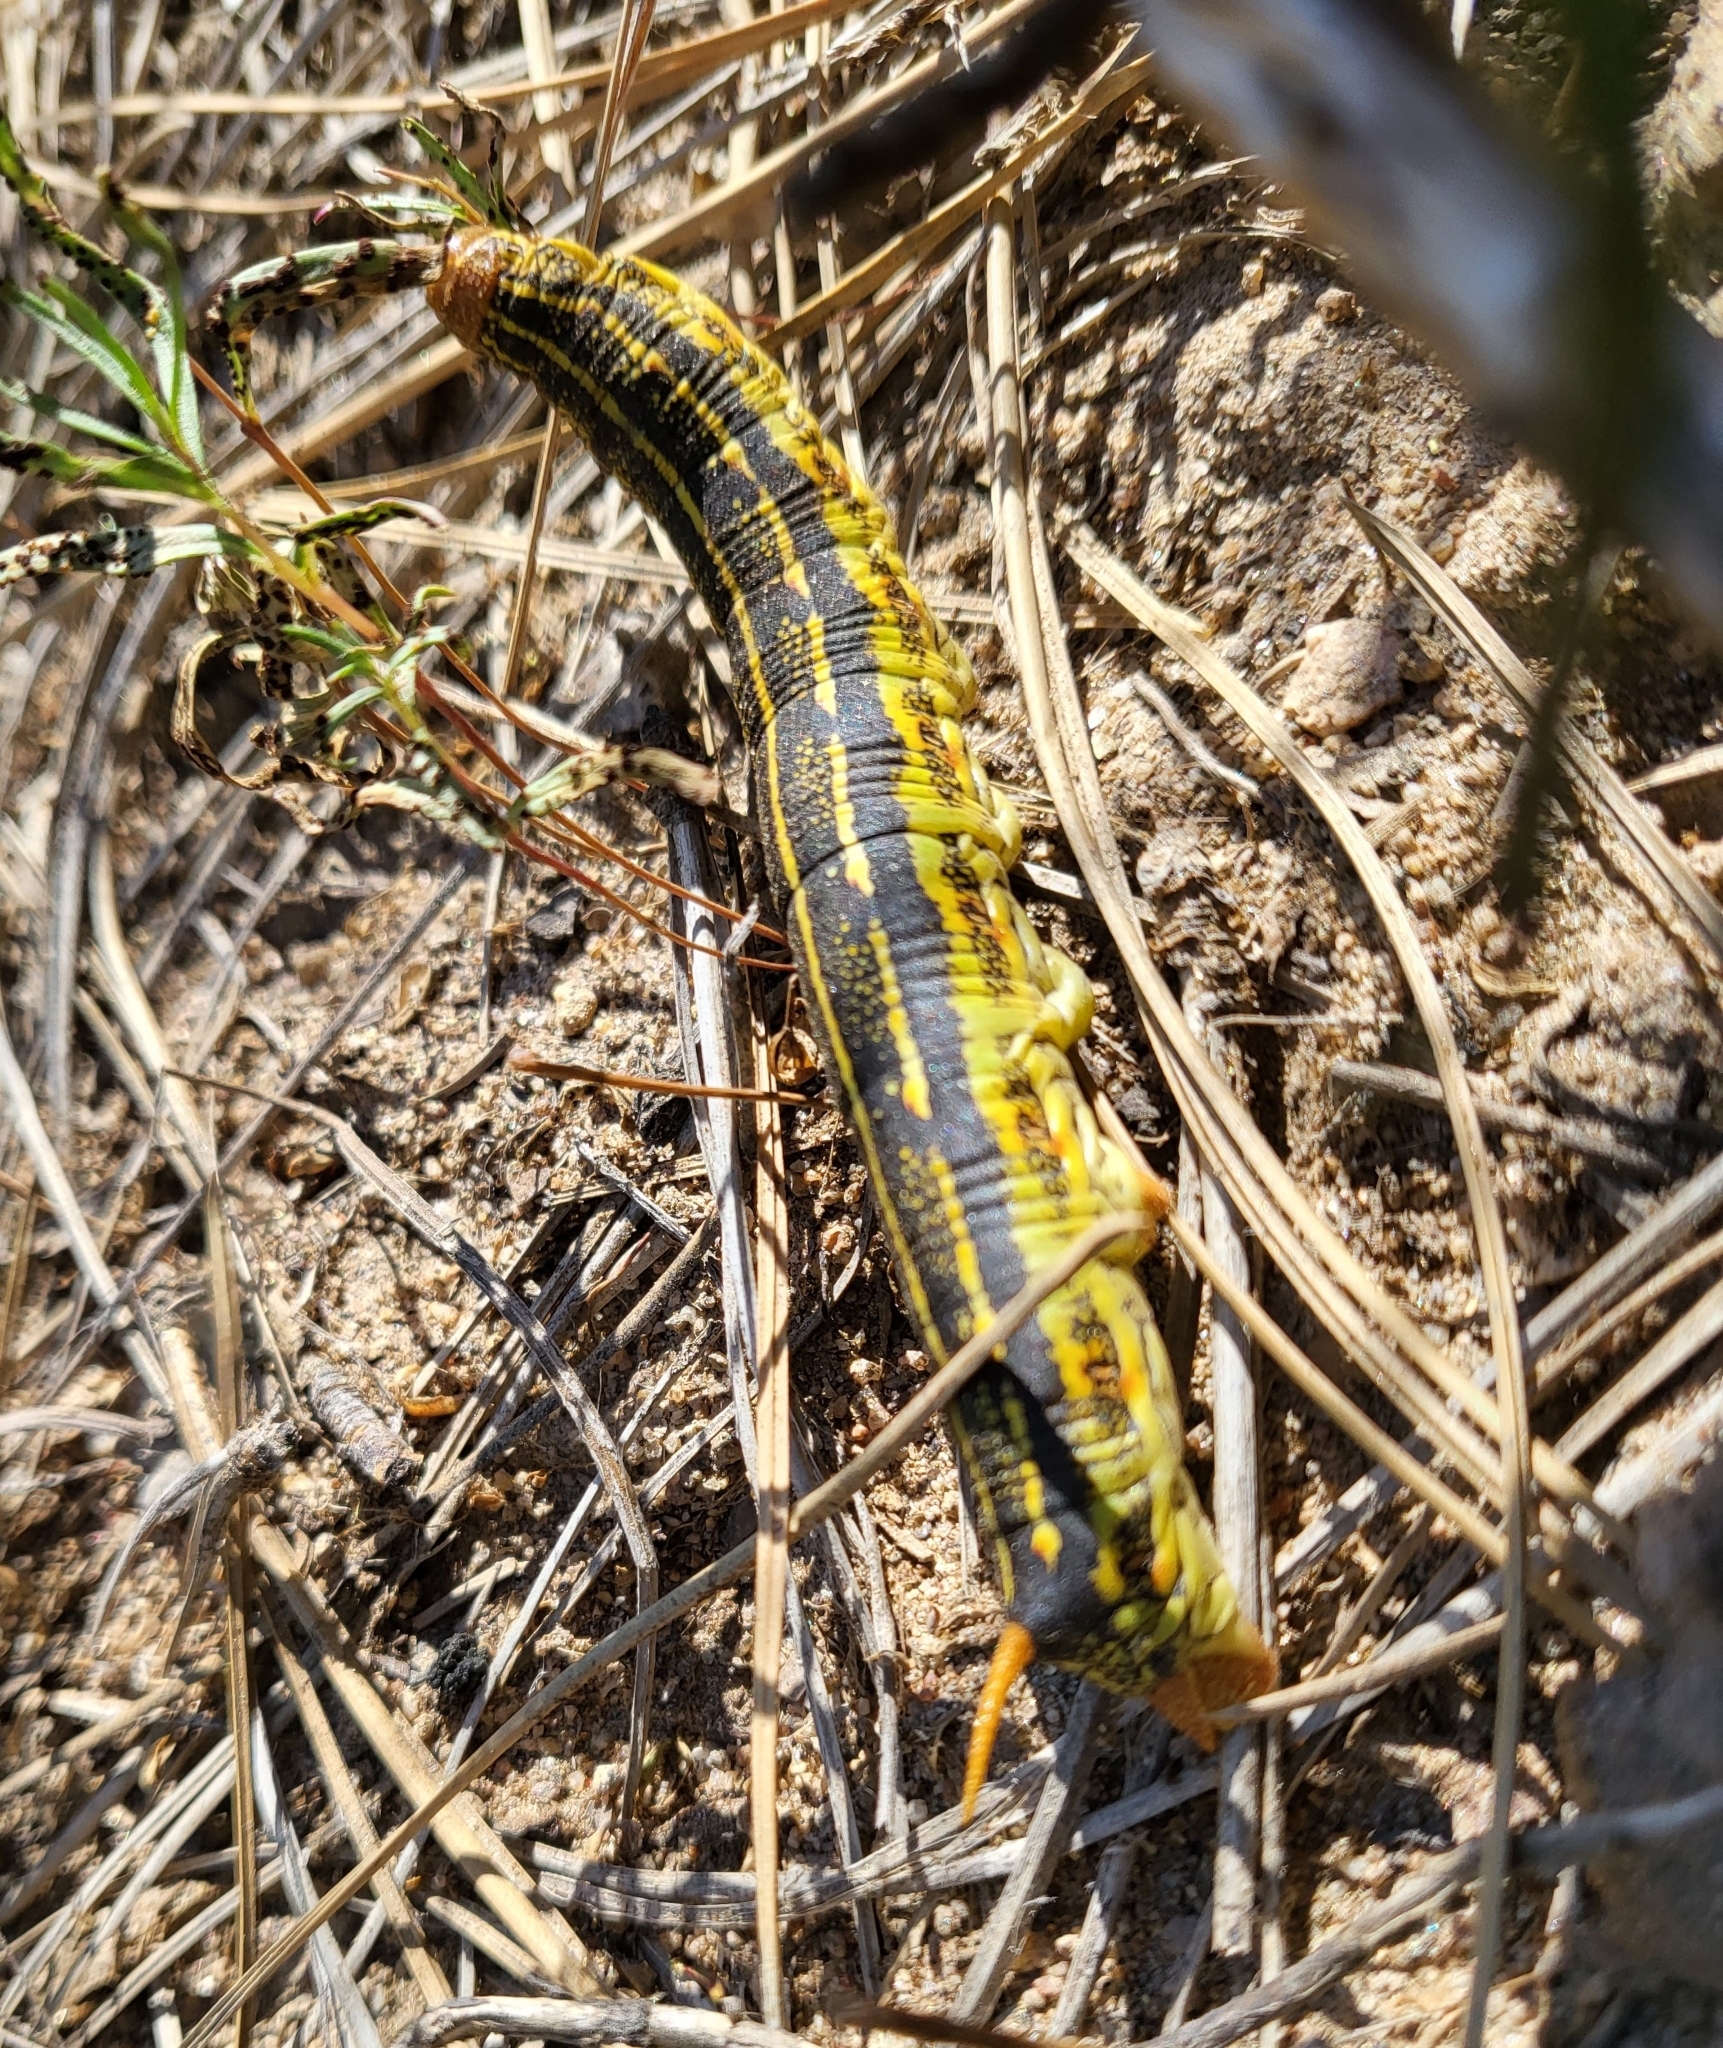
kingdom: Animalia
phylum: Arthropoda
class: Insecta
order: Lepidoptera
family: Sphingidae
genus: Hyles
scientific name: Hyles lineata
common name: White-lined sphinx
